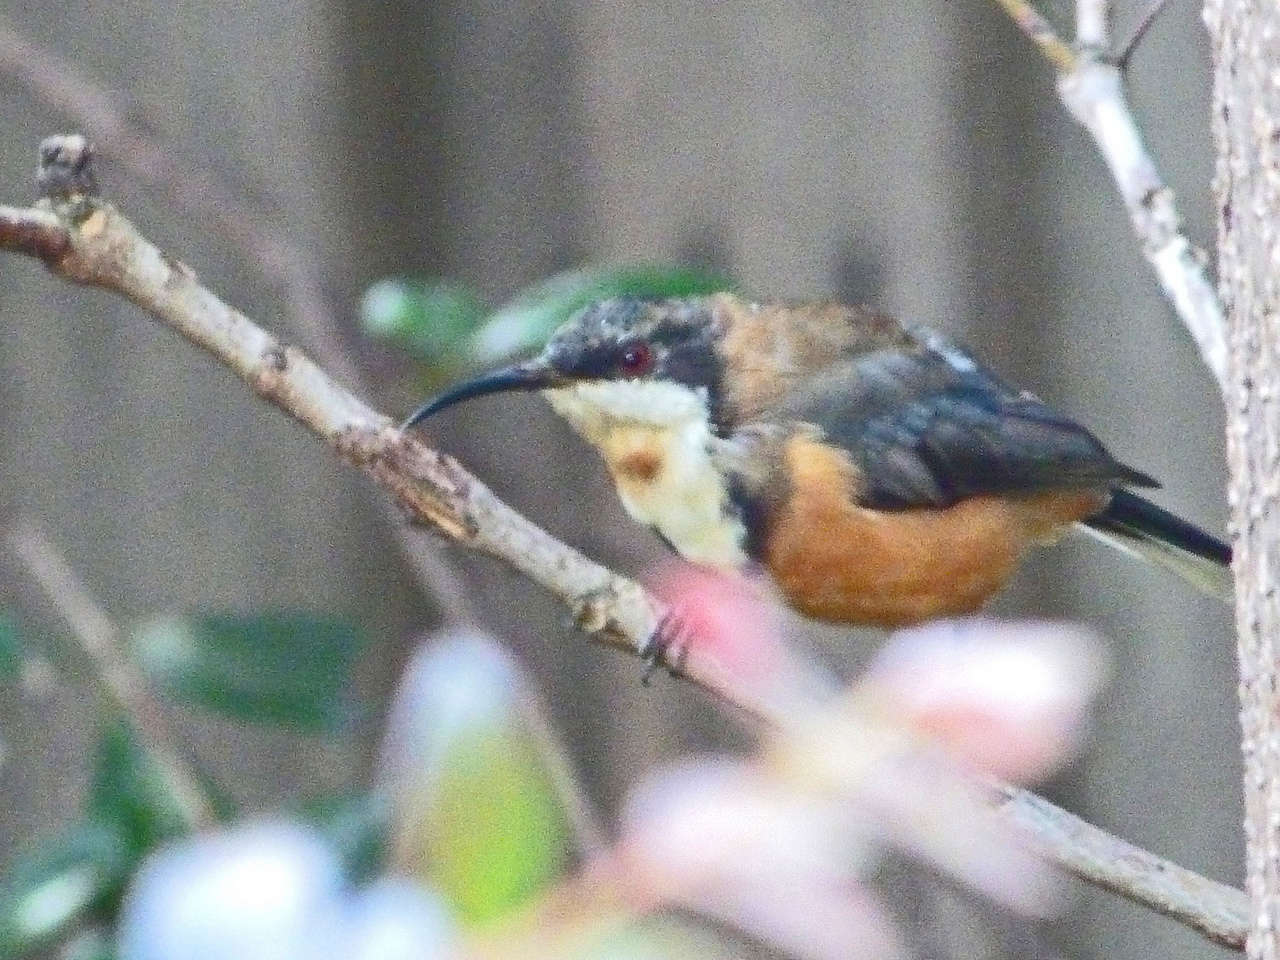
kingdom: Animalia
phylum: Chordata
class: Aves
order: Passeriformes
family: Meliphagidae
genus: Acanthorhynchus
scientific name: Acanthorhynchus tenuirostris
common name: Eastern spinebill
